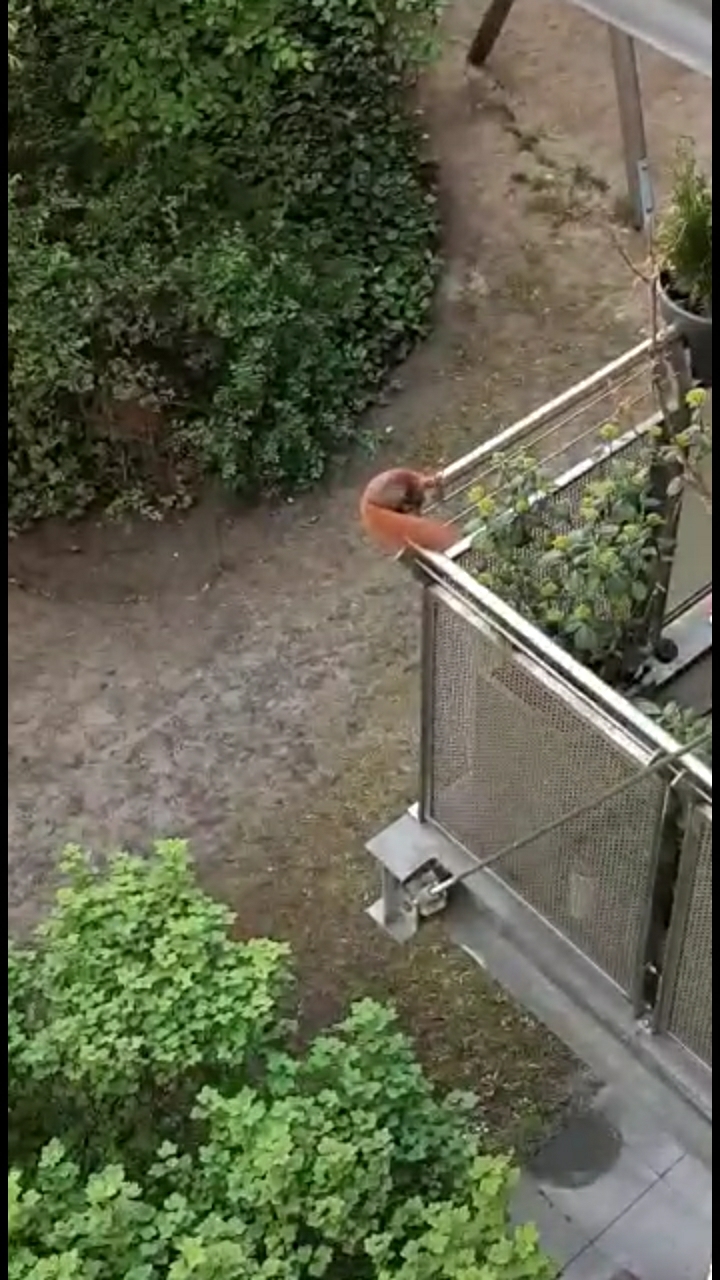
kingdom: Animalia
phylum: Chordata
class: Mammalia
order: Rodentia
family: Sciuridae
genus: Sciurus
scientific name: Sciurus vulgaris
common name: Eurasian red squirrel
